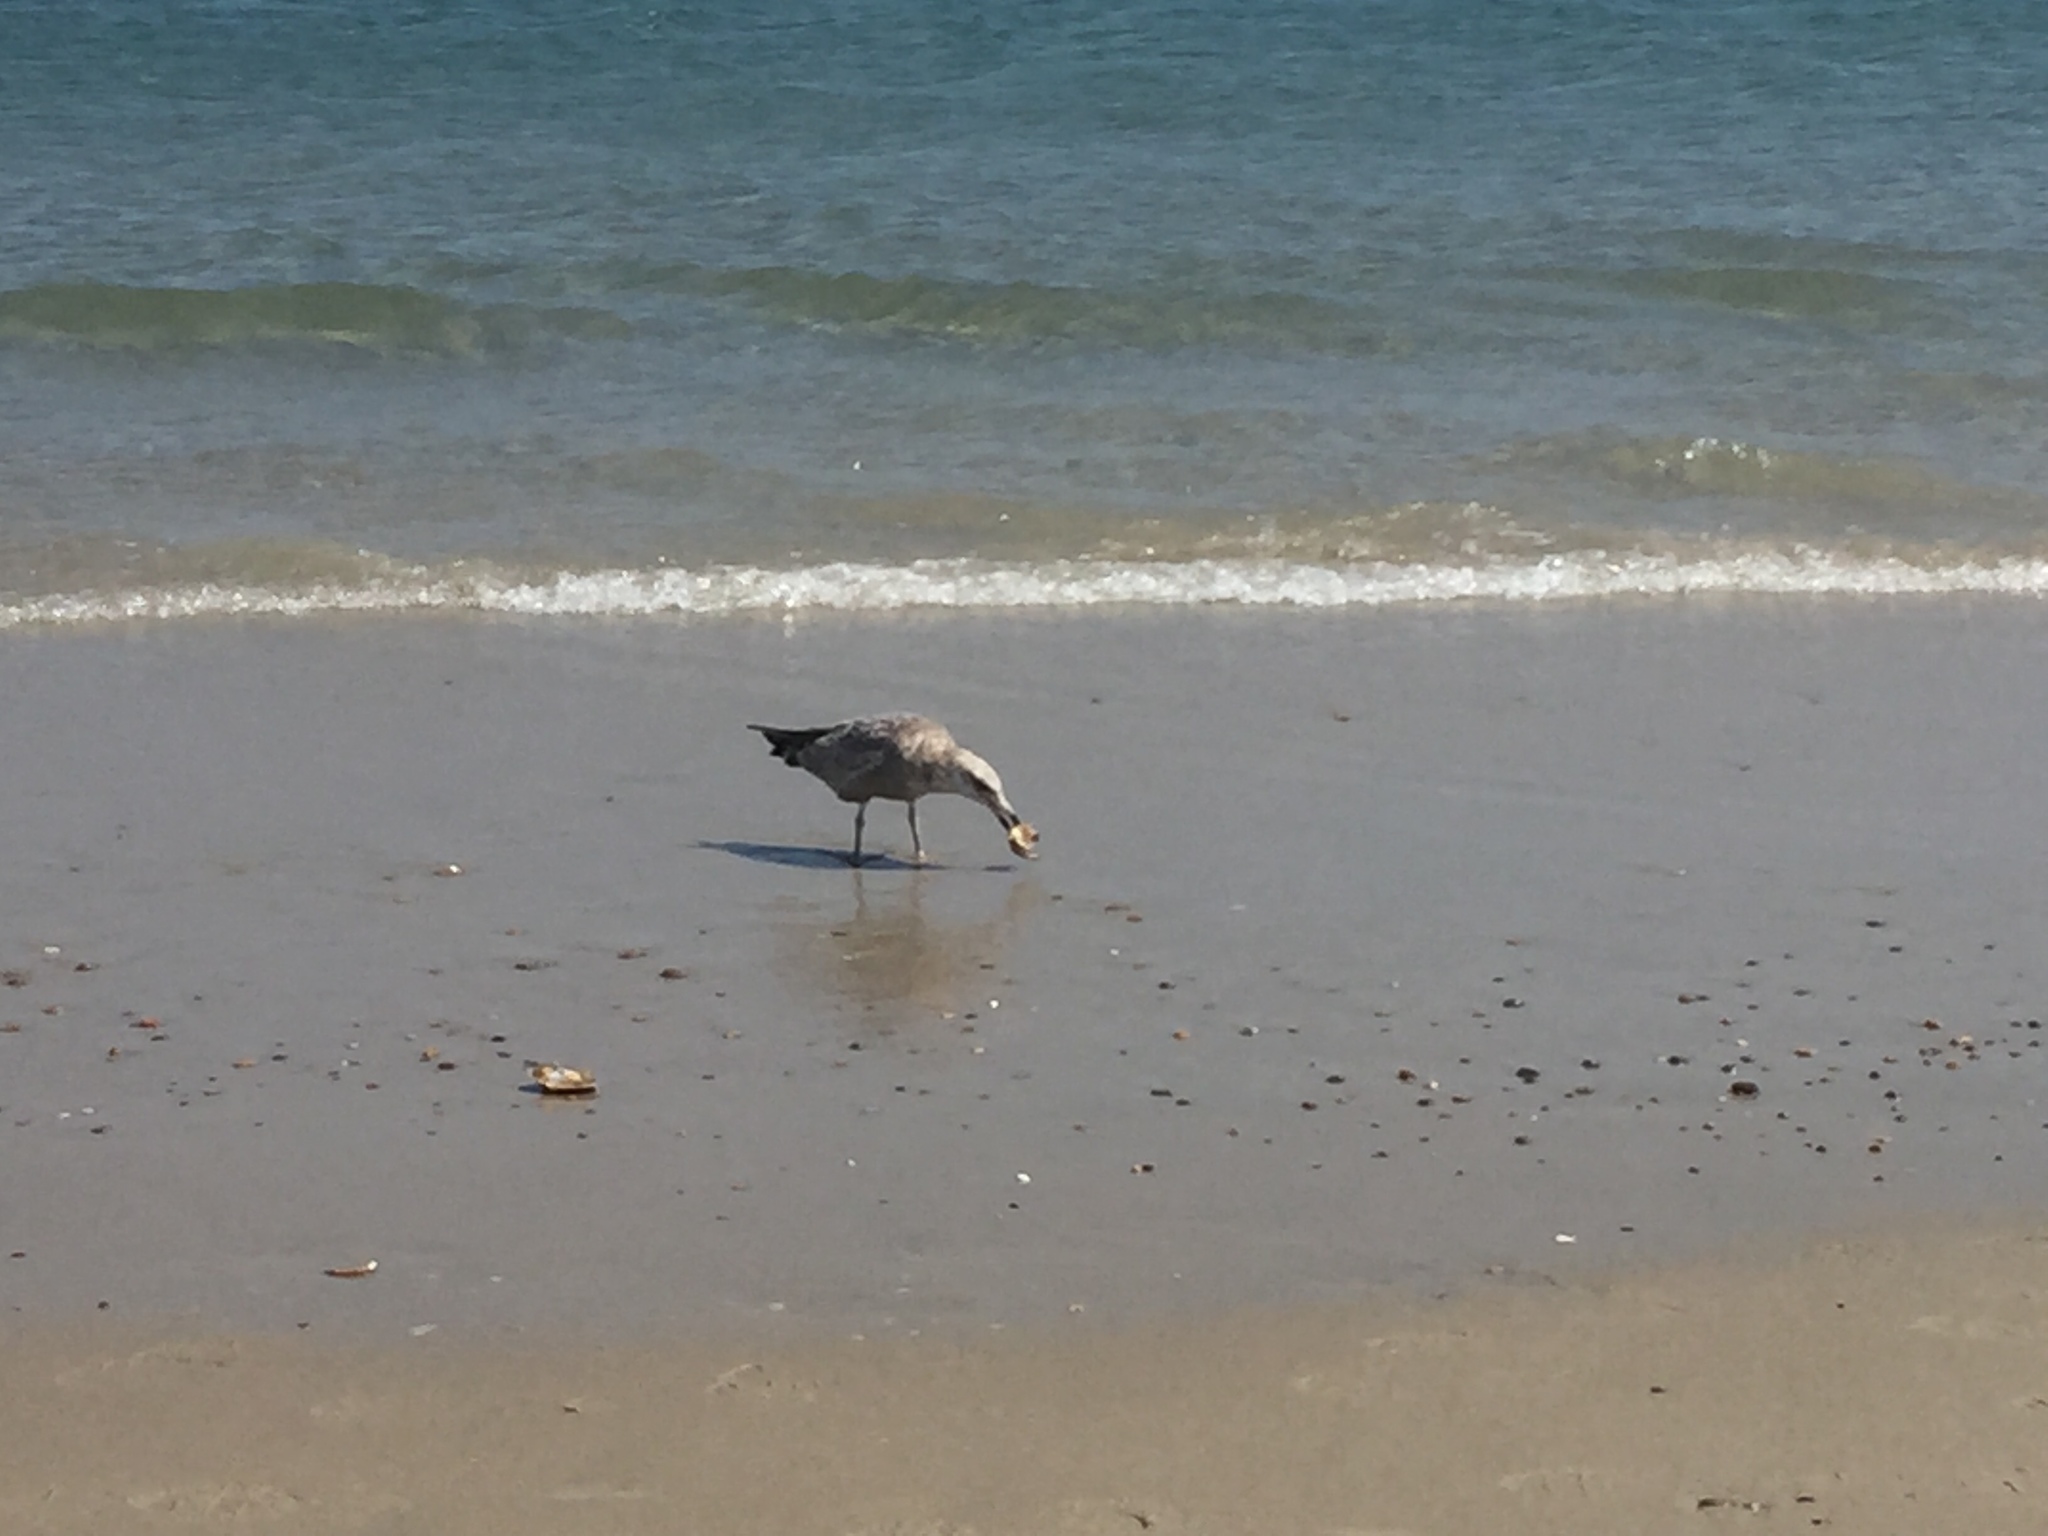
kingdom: Animalia
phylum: Chordata
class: Aves
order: Charadriiformes
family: Laridae
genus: Larus
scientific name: Larus argentatus
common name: Herring gull
